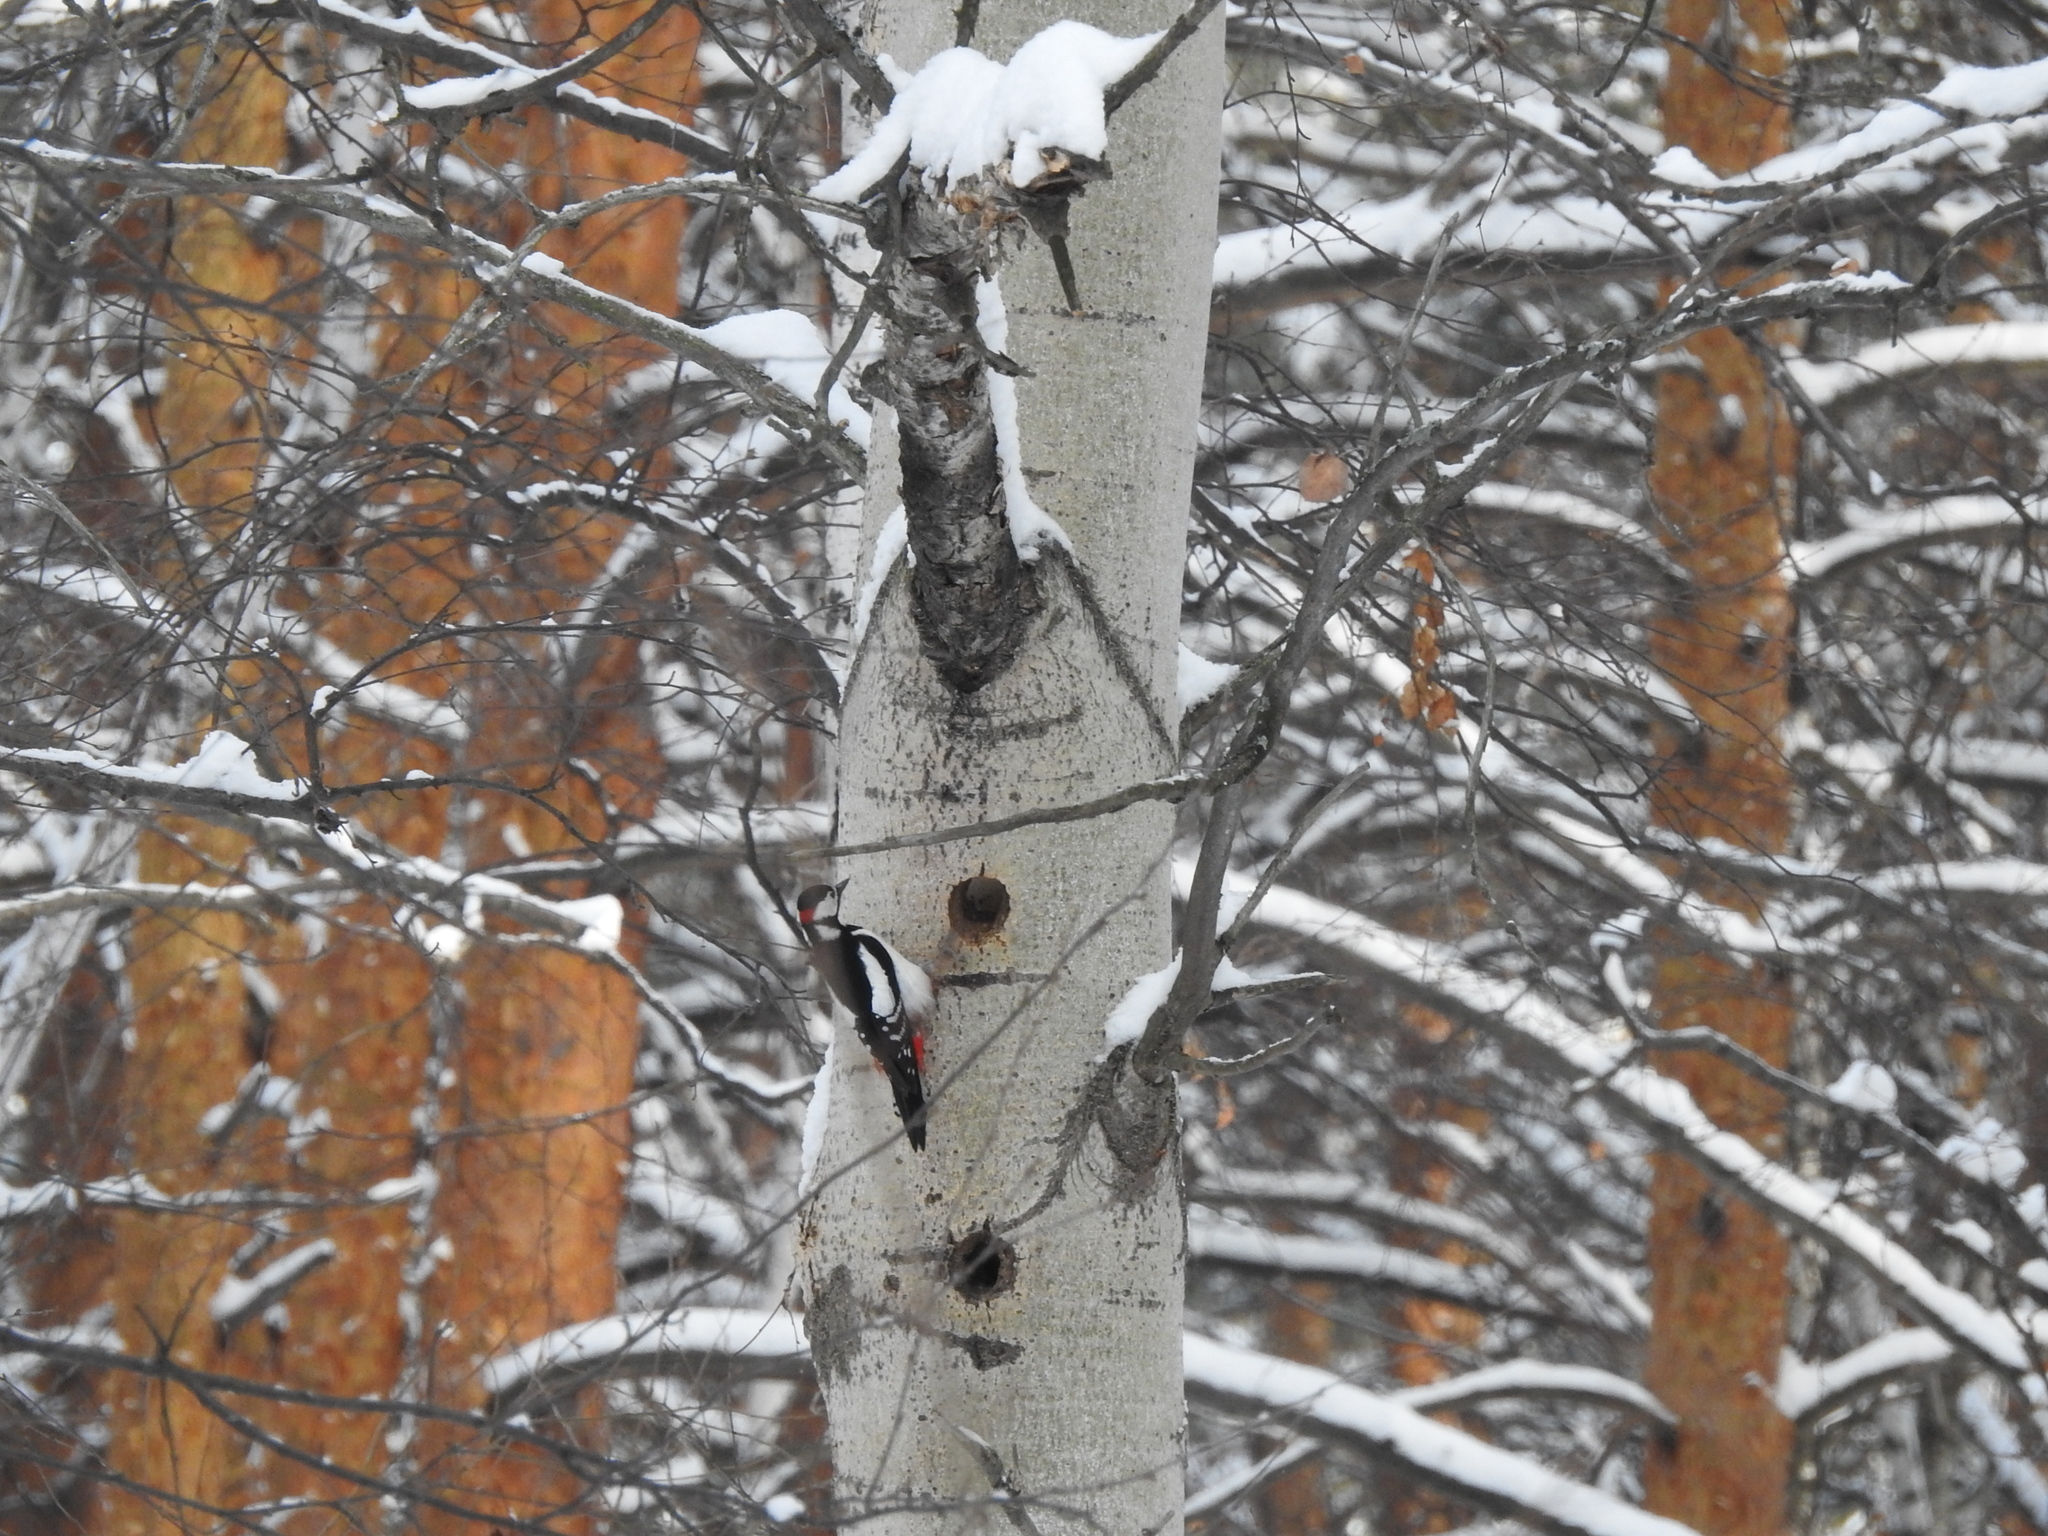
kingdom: Animalia
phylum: Chordata
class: Aves
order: Piciformes
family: Picidae
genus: Dendrocopos
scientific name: Dendrocopos major
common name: Great spotted woodpecker
